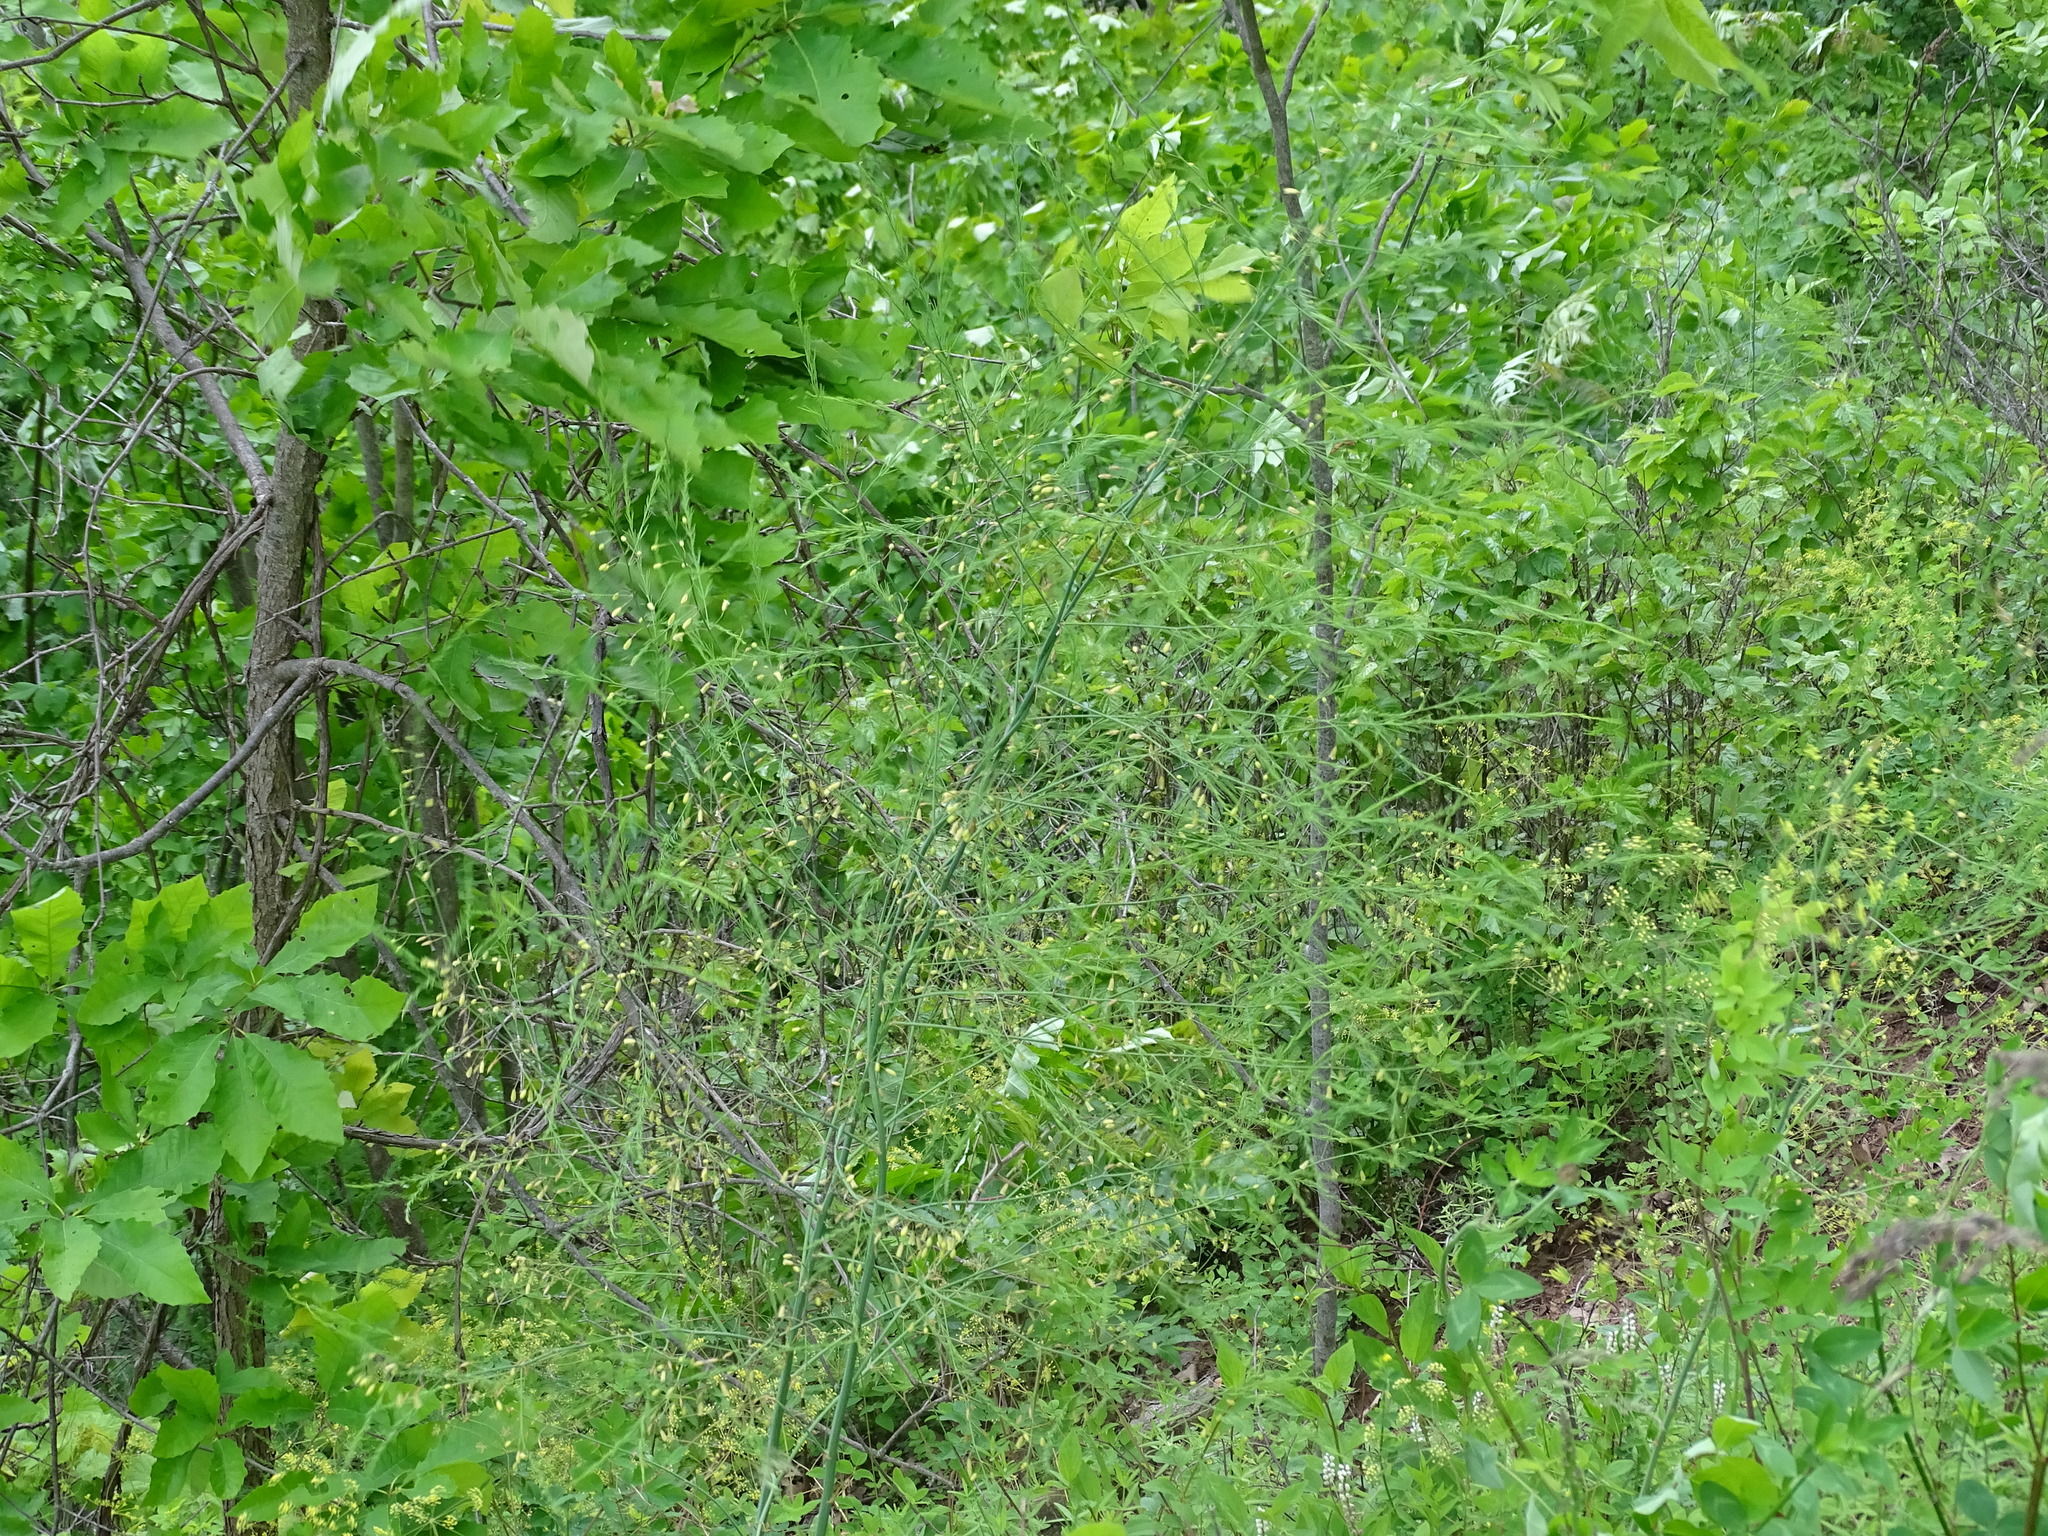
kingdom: Plantae
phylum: Tracheophyta
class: Liliopsida
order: Asparagales
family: Asparagaceae
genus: Asparagus
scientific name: Asparagus officinalis
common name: Garden asparagus
